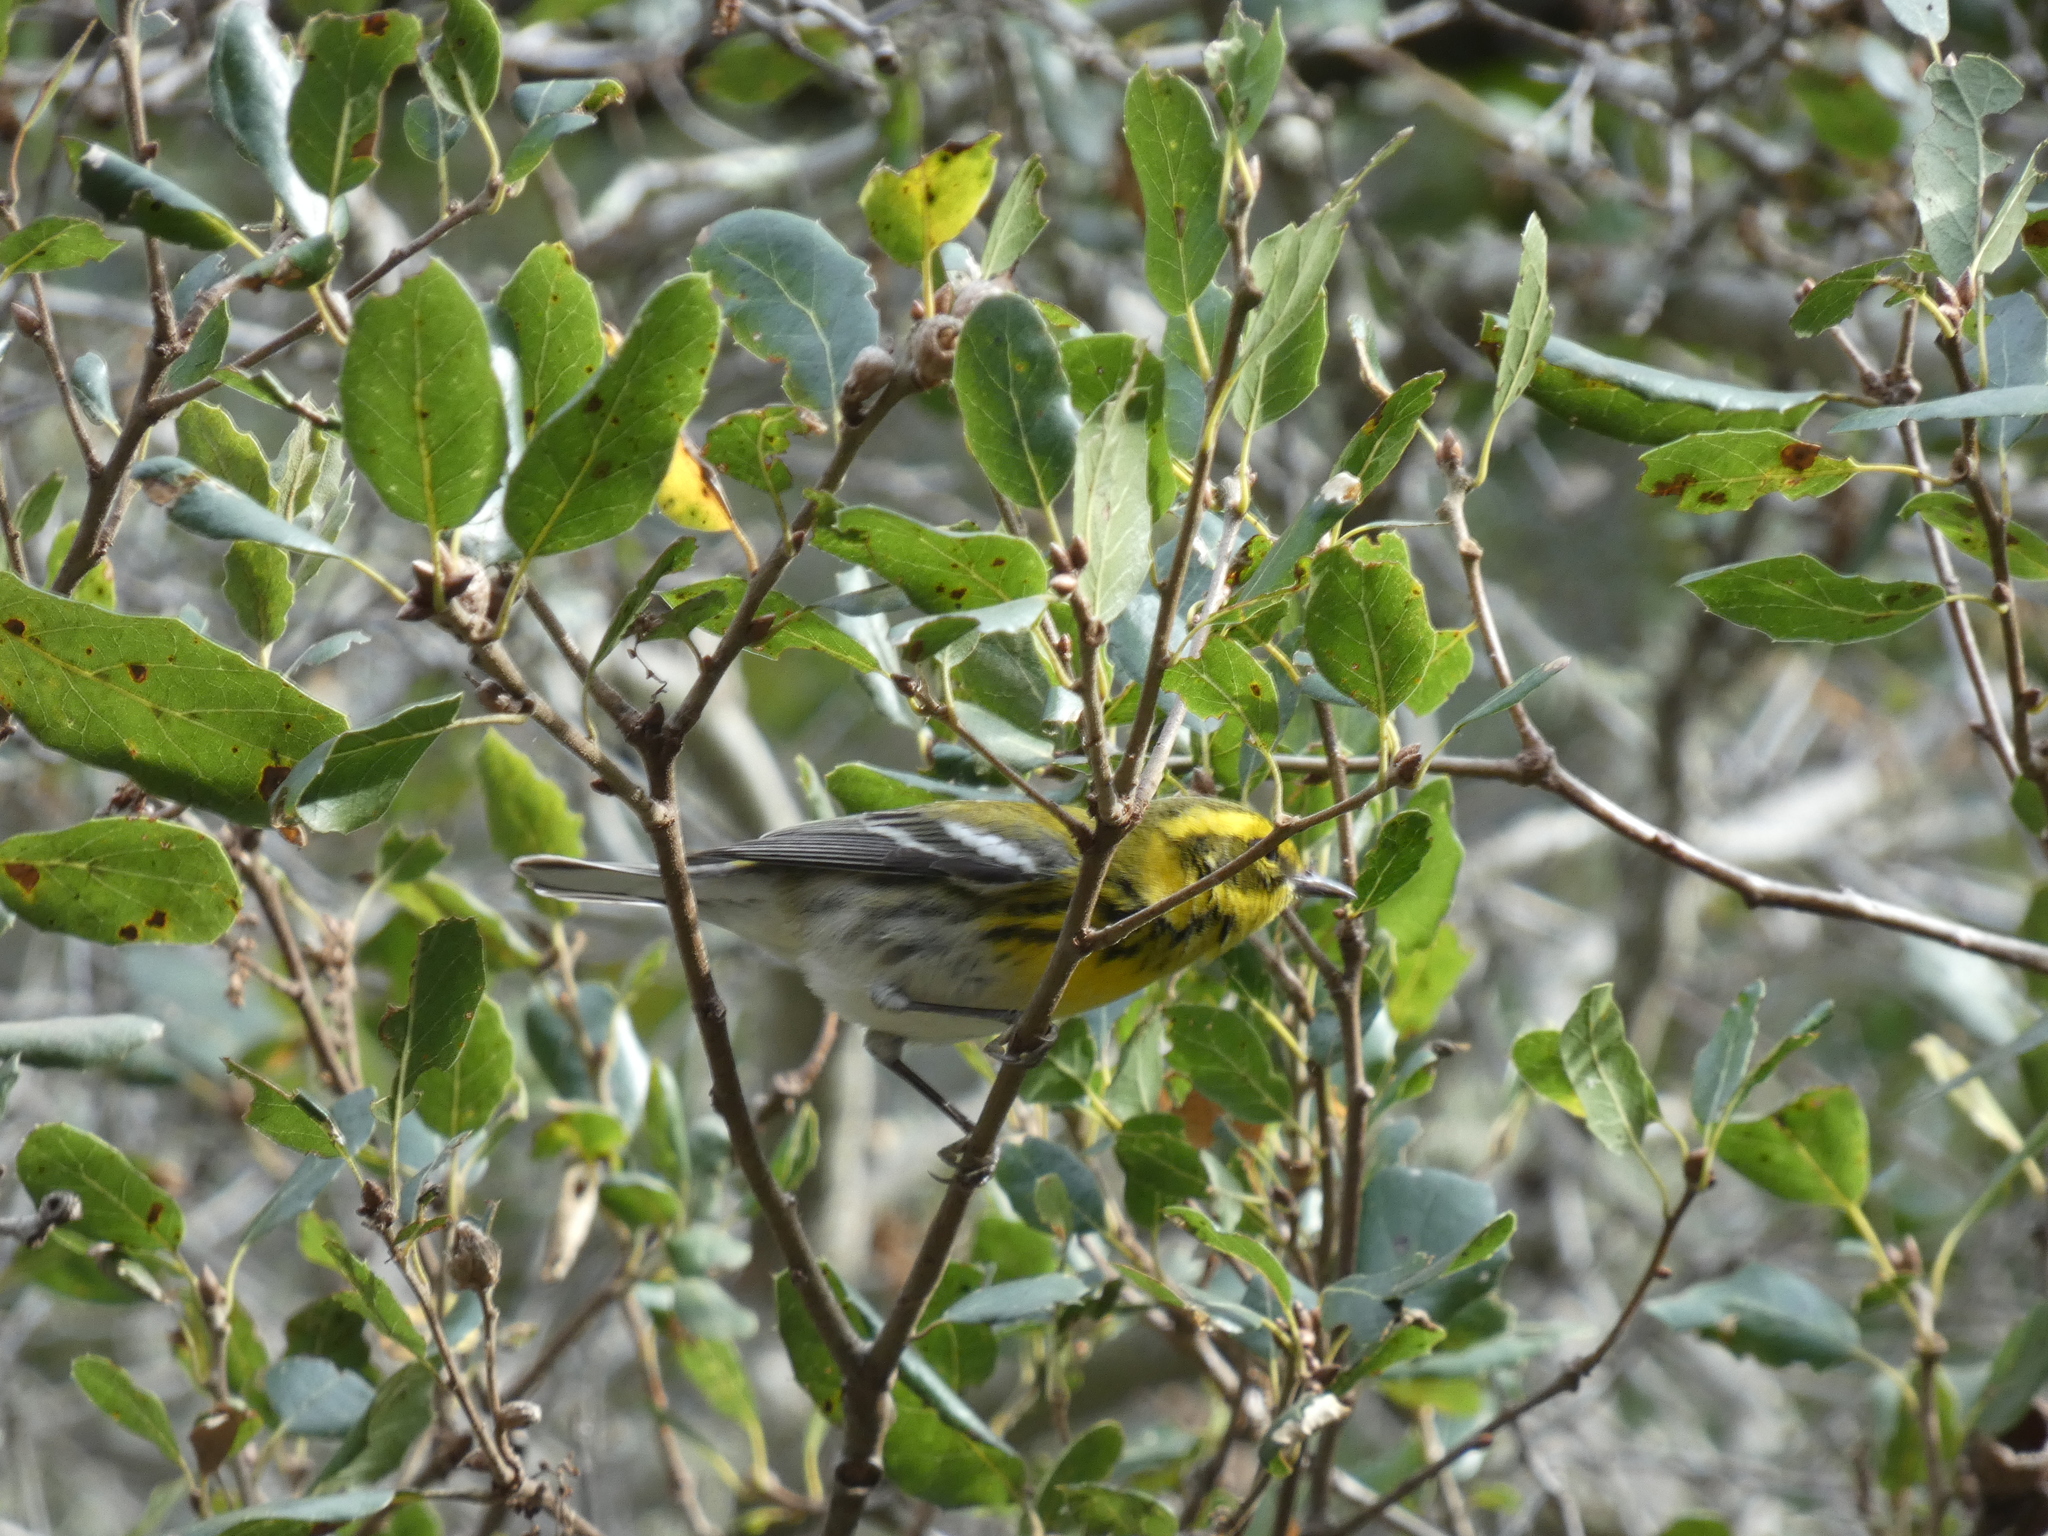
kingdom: Animalia
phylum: Chordata
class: Aves
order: Passeriformes
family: Parulidae
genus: Setophaga
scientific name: Setophaga townsendi
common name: Townsend's warbler
